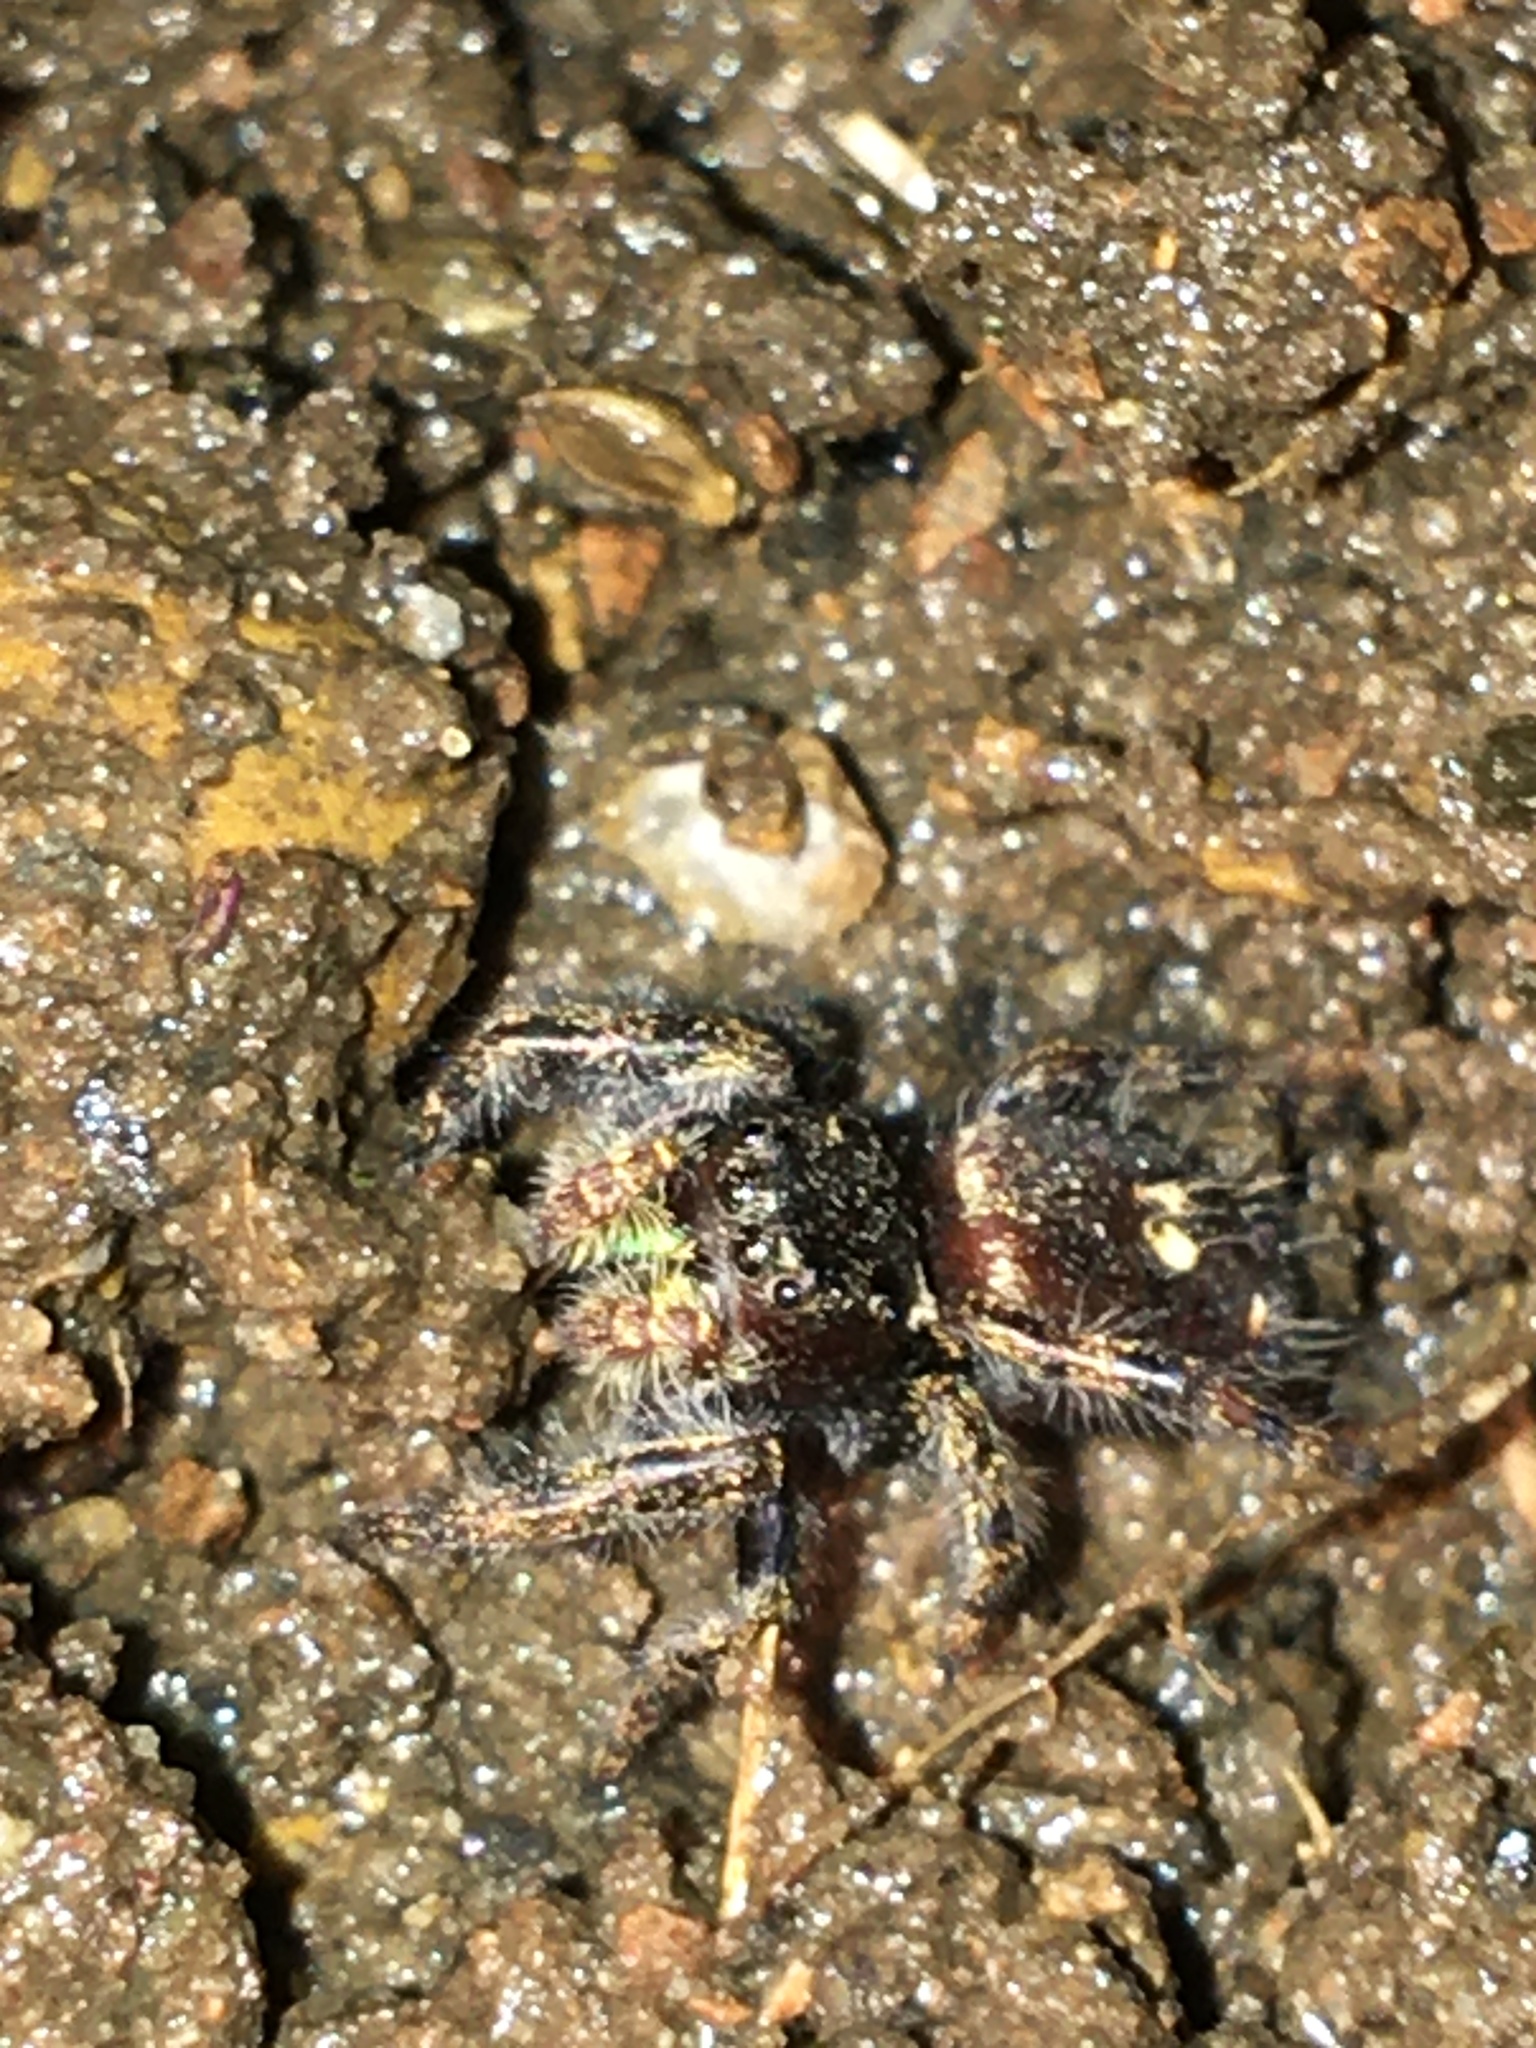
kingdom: Animalia
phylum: Arthropoda
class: Arachnida
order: Araneae
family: Salticidae
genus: Phidippus
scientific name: Phidippus audax
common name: Bold jumper
